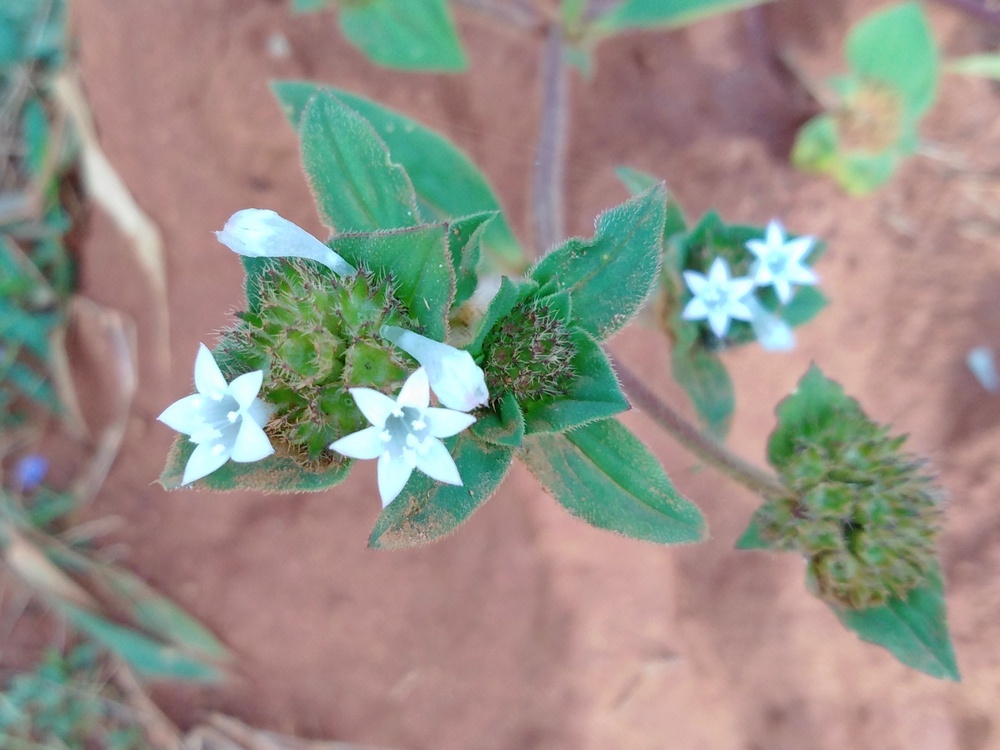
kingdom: Plantae
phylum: Tracheophyta
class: Magnoliopsida
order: Gentianales
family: Rubiaceae
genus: Richardia
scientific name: Richardia brasiliensis
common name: Tropical mexican clover
